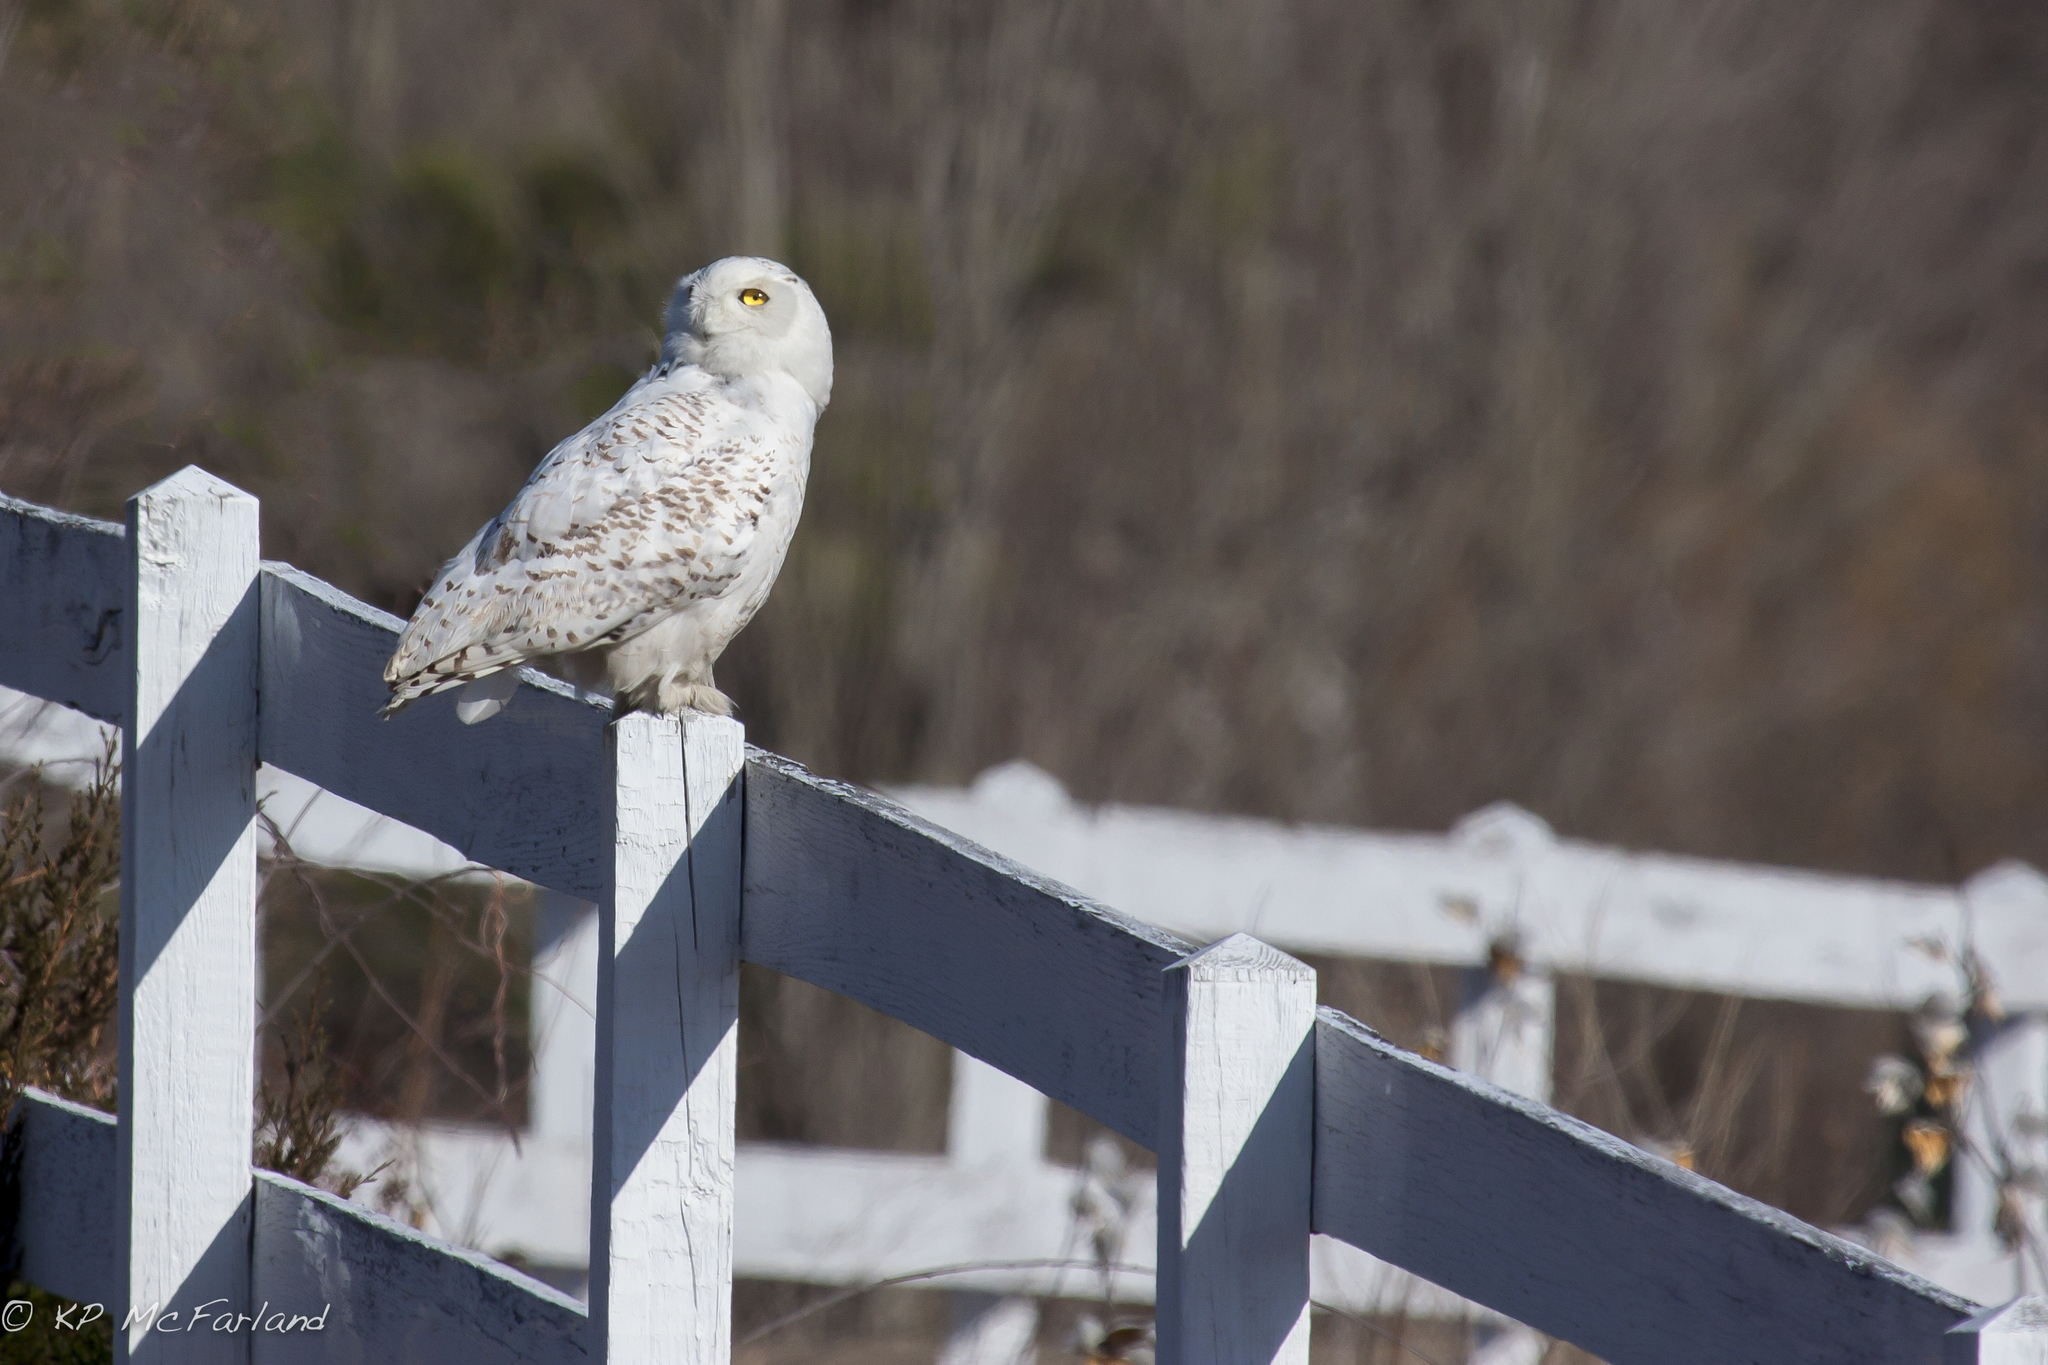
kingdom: Animalia
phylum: Chordata
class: Aves
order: Strigiformes
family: Strigidae
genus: Bubo
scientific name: Bubo scandiacus
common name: Snowy owl
